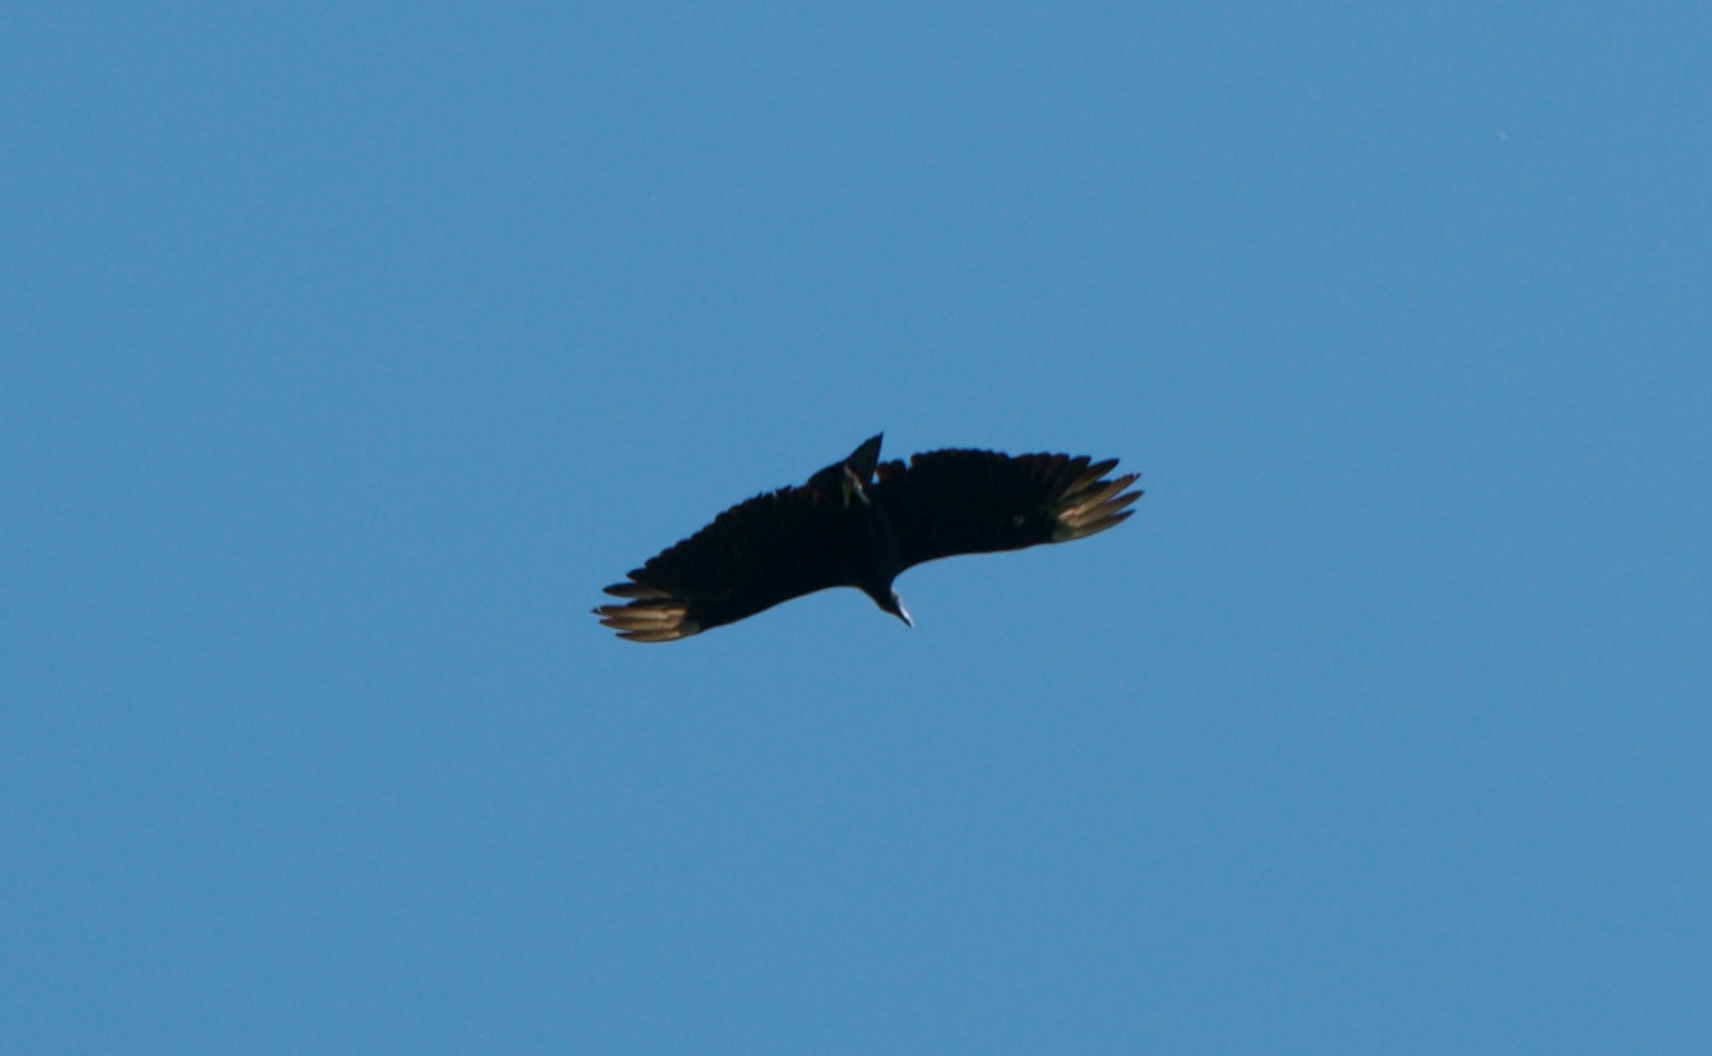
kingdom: Animalia
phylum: Chordata
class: Aves
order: Accipitriformes
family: Cathartidae
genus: Coragyps
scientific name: Coragyps atratus
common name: Black vulture
